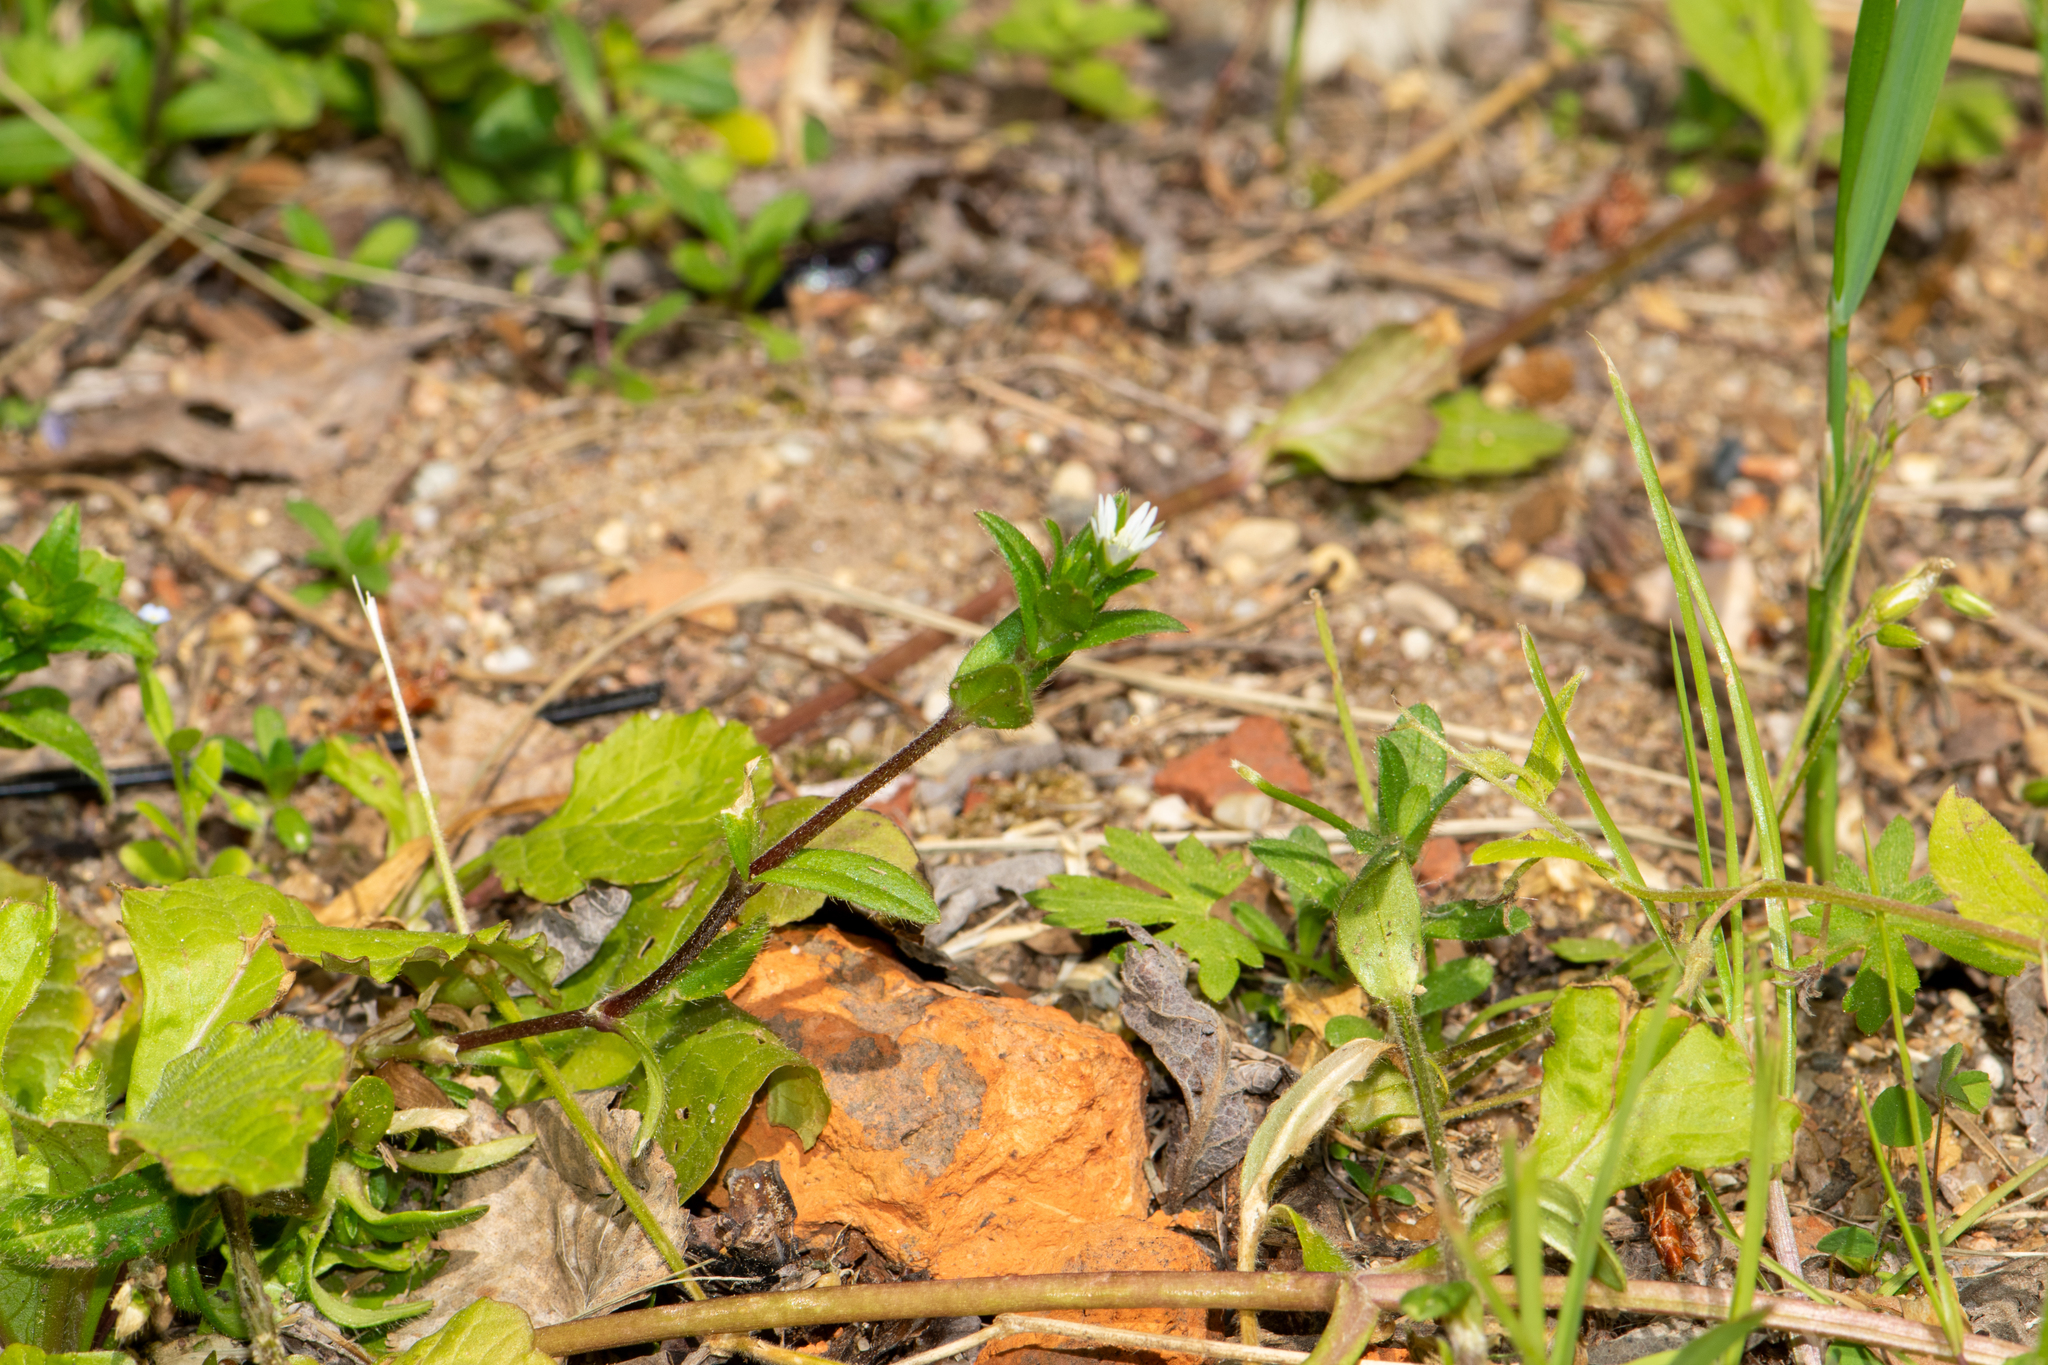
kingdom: Plantae
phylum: Tracheophyta
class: Magnoliopsida
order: Caryophyllales
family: Caryophyllaceae
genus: Cerastium
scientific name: Cerastium holosteoides
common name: Big chickweed
